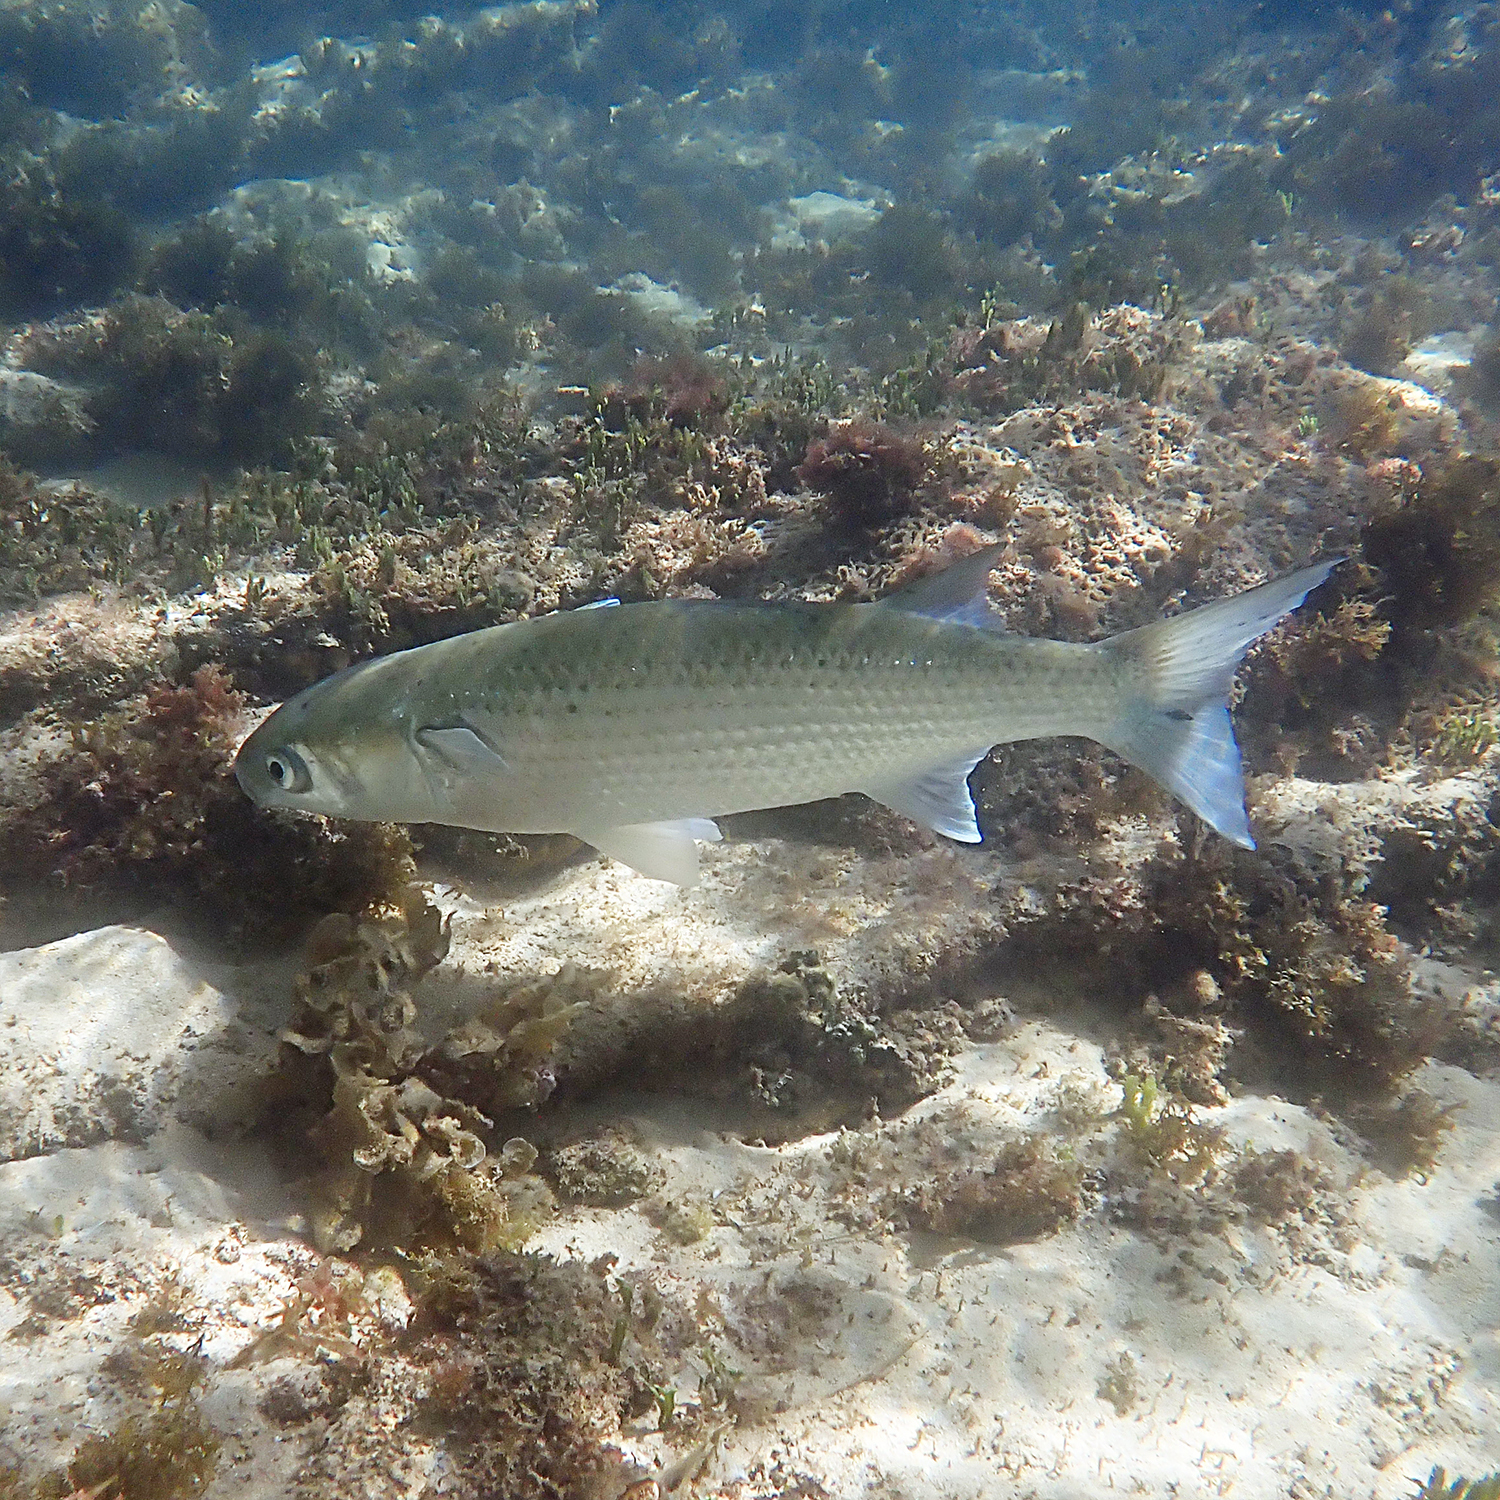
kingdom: Animalia
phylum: Chordata
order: Mugiliformes
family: Mugilidae
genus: Mugil
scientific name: Mugil cephalus
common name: Grey mullet
